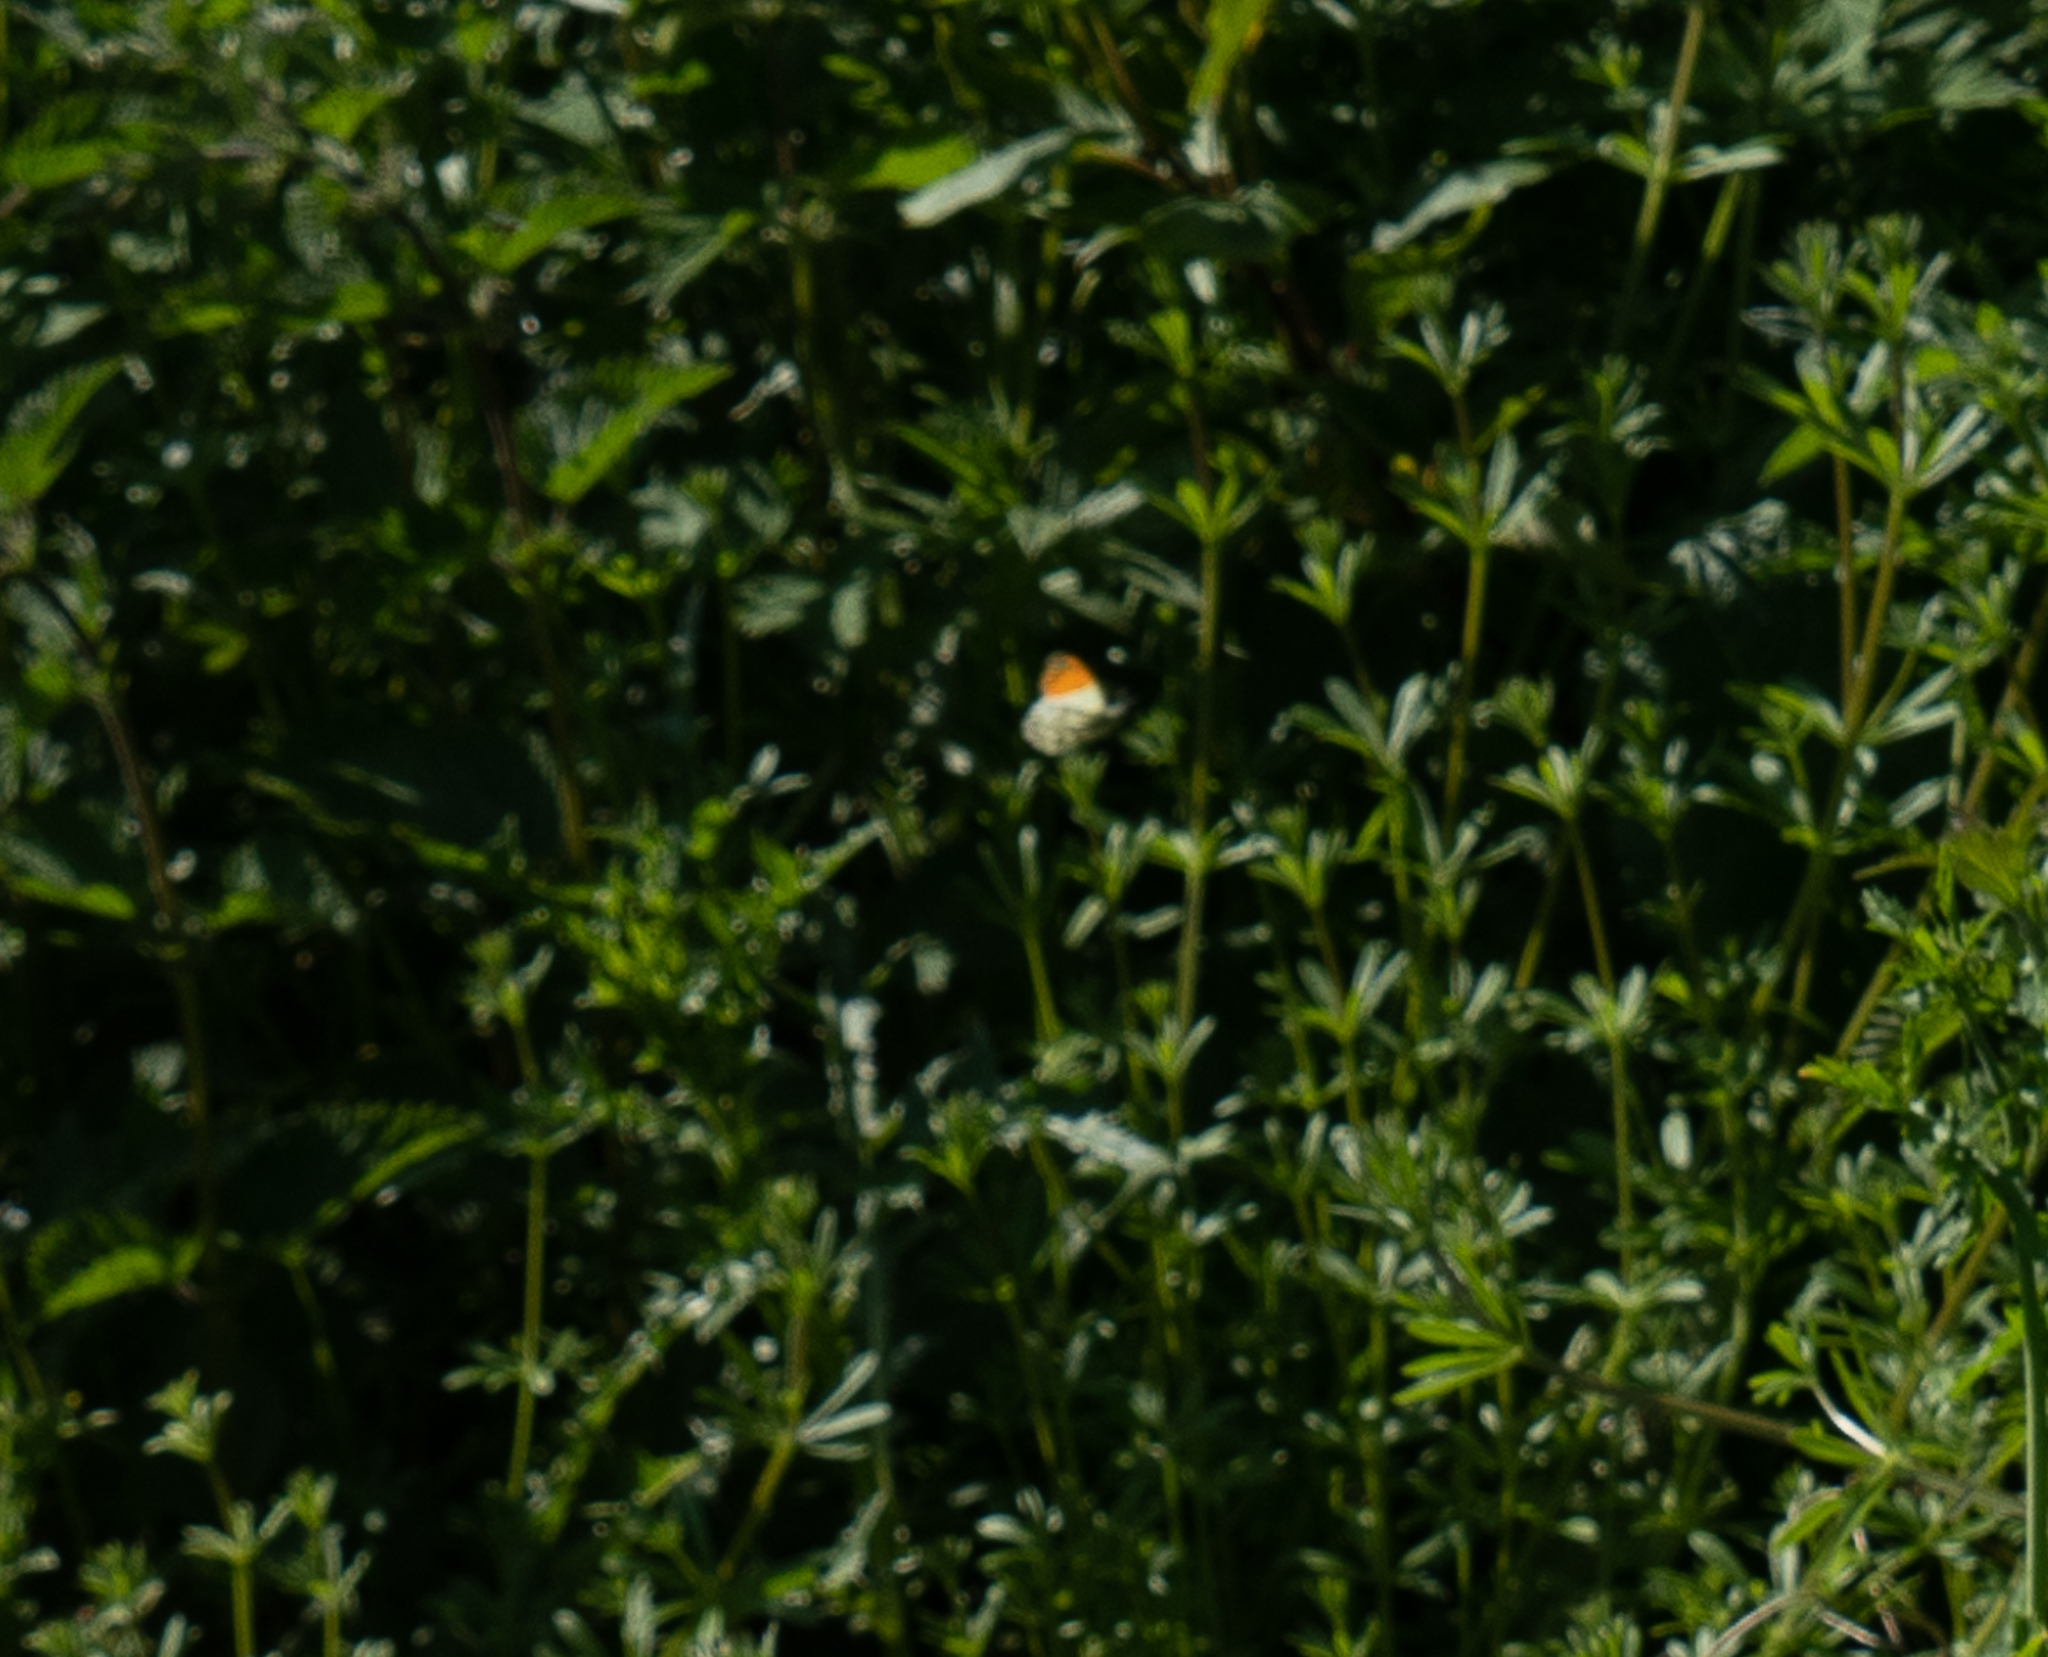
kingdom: Animalia
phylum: Arthropoda
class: Insecta
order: Lepidoptera
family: Pieridae
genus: Anthocharis
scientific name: Anthocharis cardamines
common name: Orange-tip
